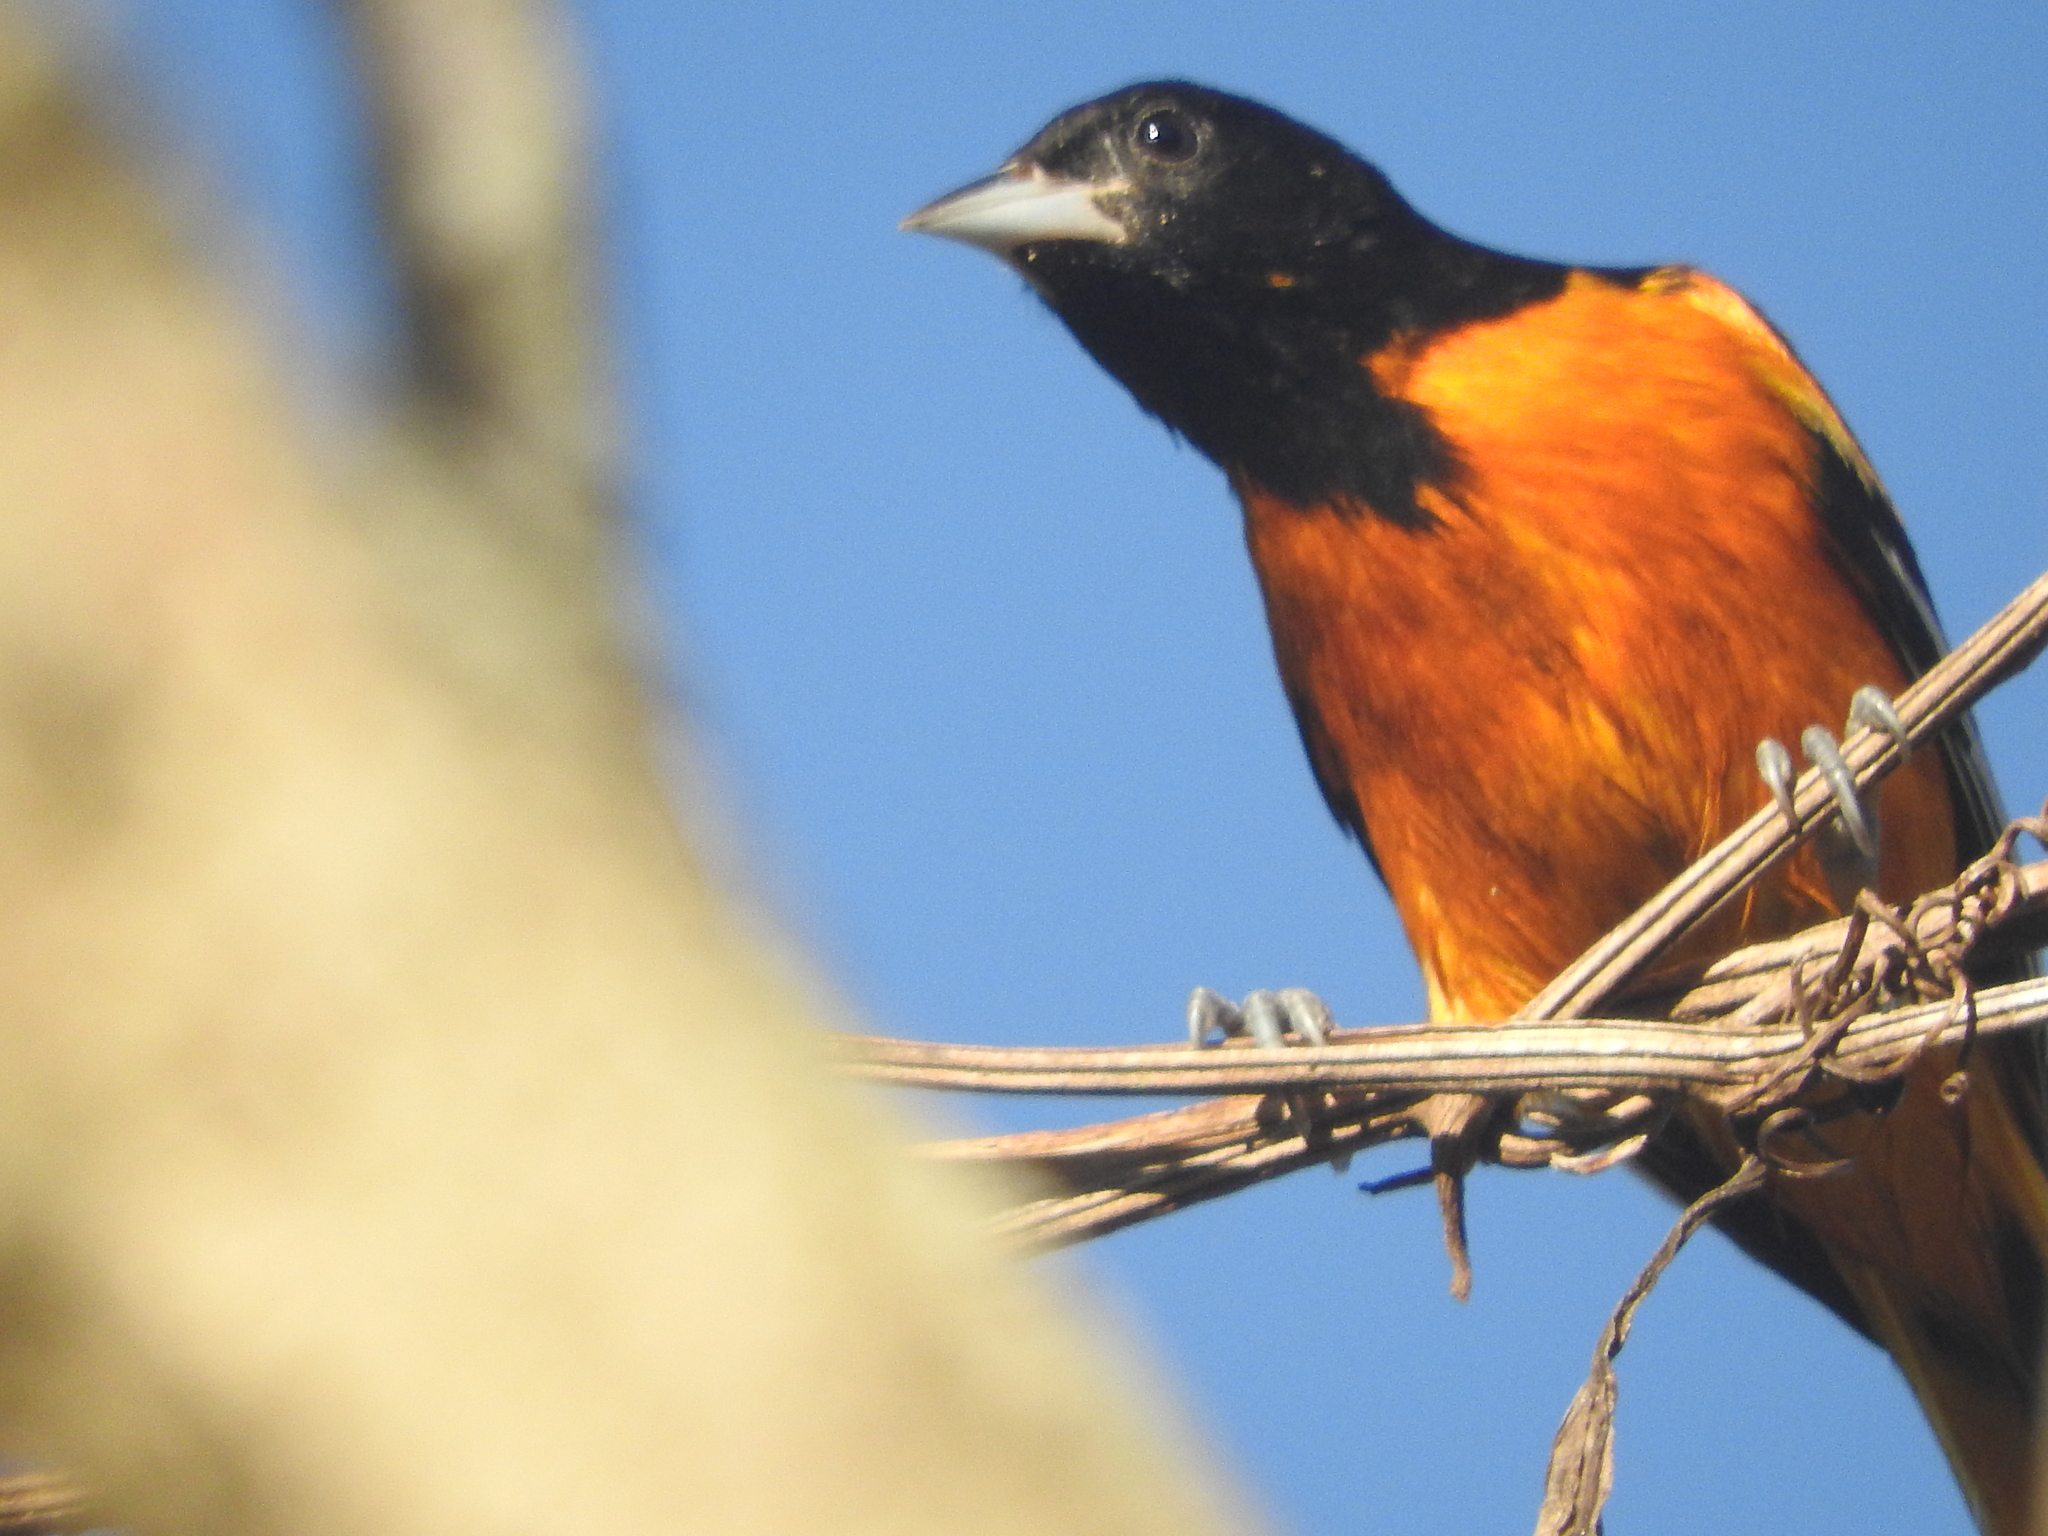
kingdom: Animalia
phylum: Chordata
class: Aves
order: Passeriformes
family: Icteridae
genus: Icterus
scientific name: Icterus galbula
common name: Baltimore oriole
